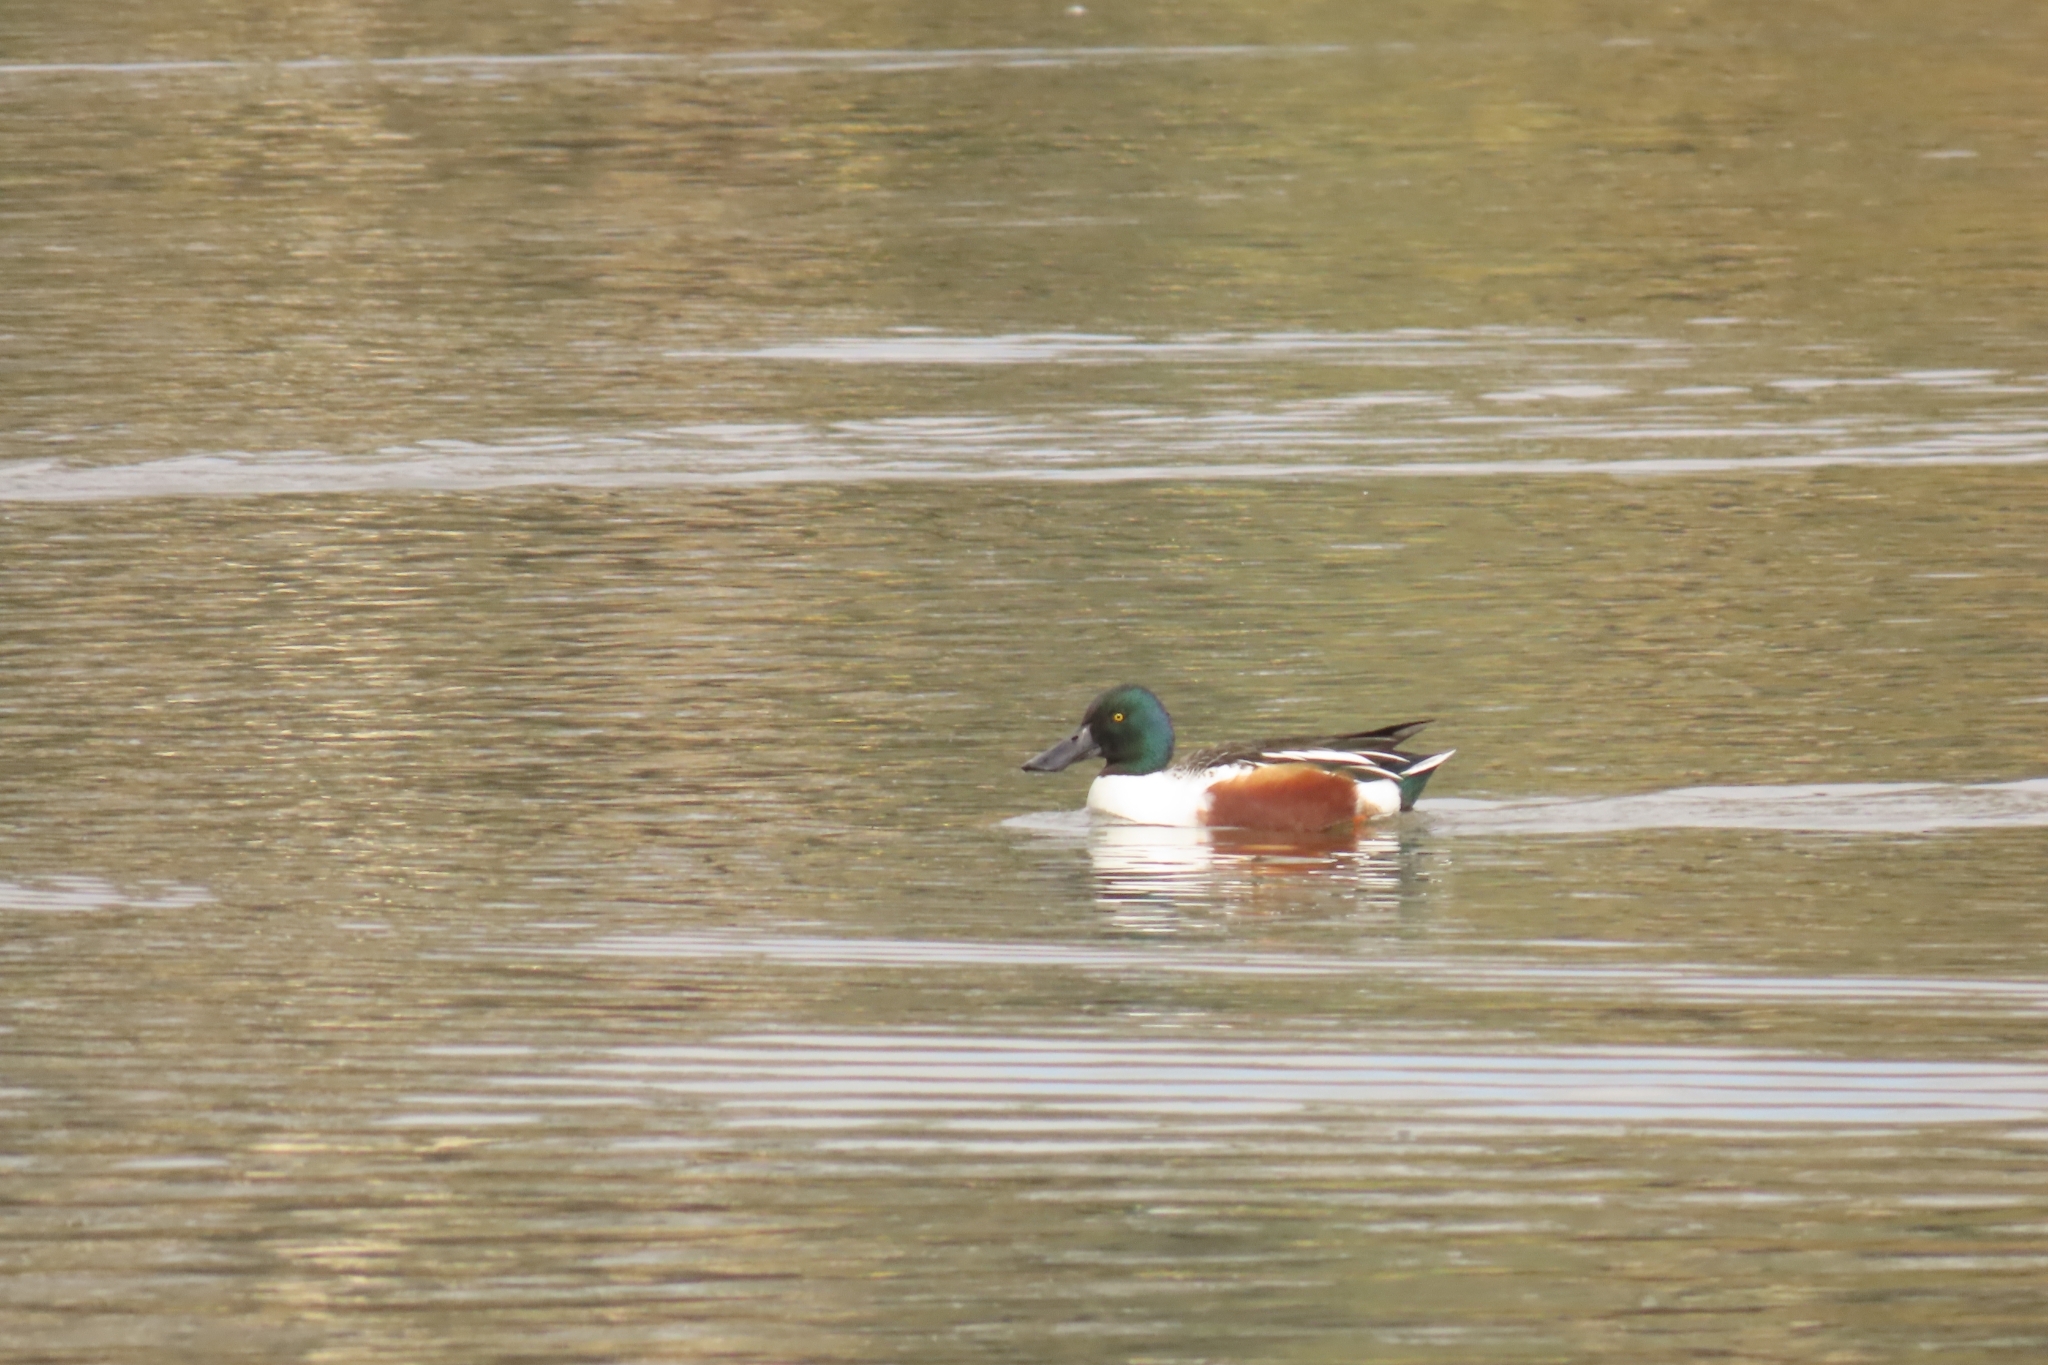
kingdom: Animalia
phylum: Chordata
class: Aves
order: Anseriformes
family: Anatidae
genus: Spatula
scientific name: Spatula clypeata
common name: Northern shoveler
